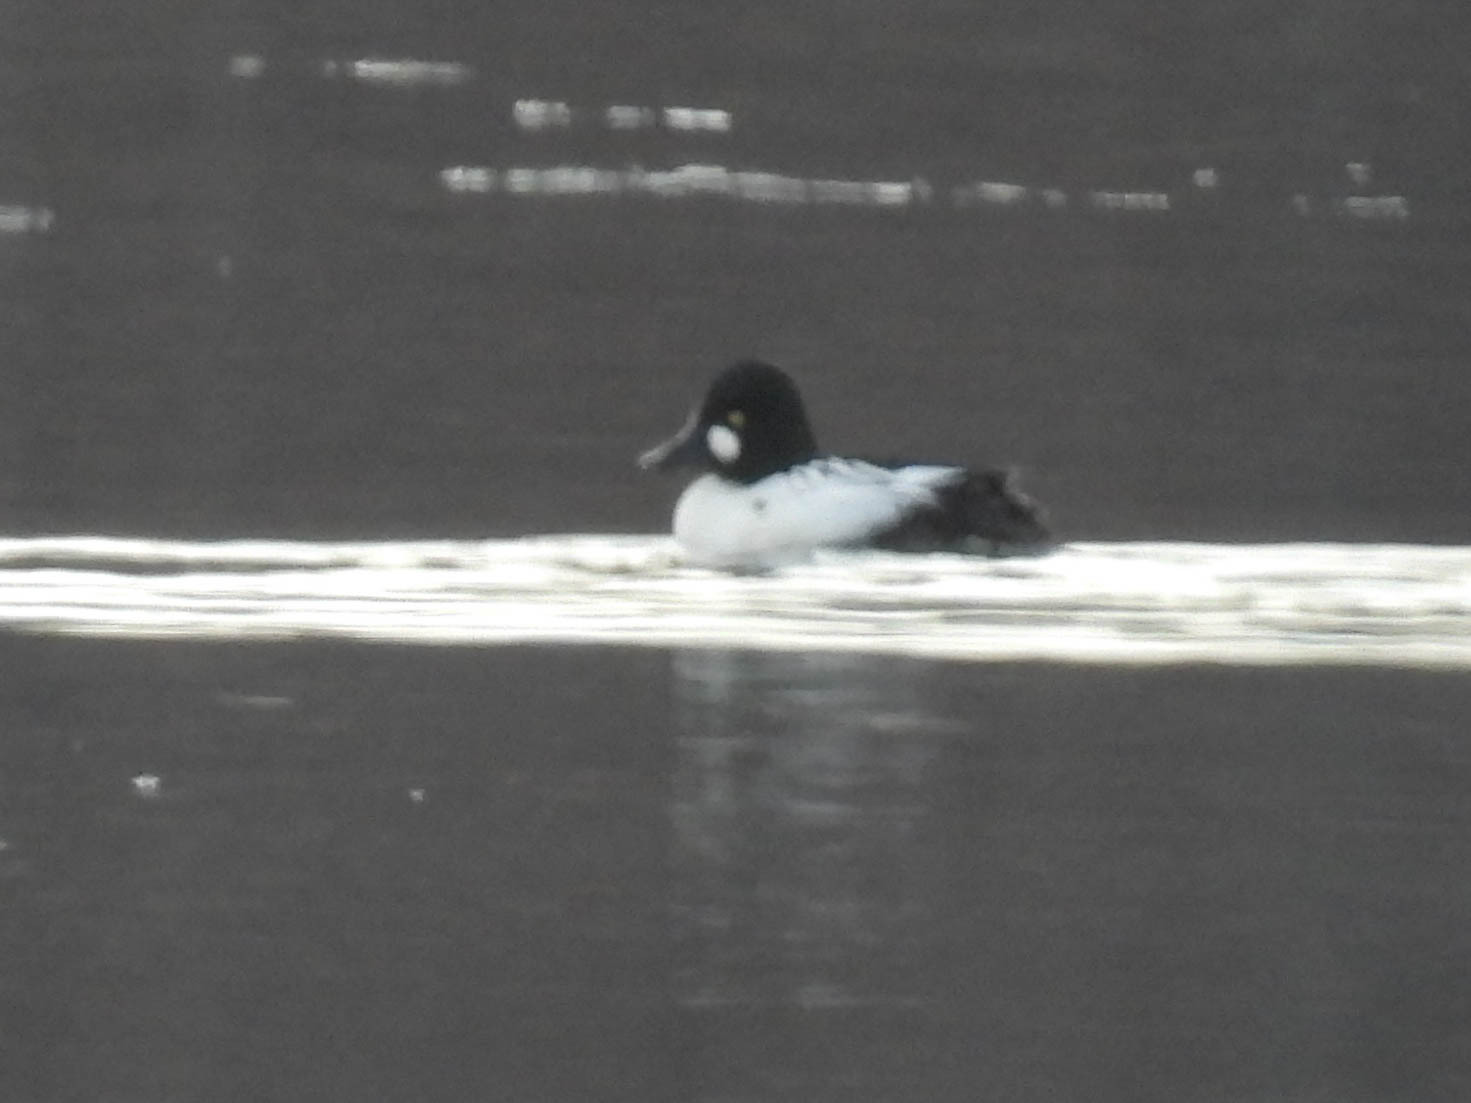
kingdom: Animalia
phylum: Chordata
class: Aves
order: Anseriformes
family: Anatidae
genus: Bucephala
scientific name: Bucephala clangula
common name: Common goldeneye
